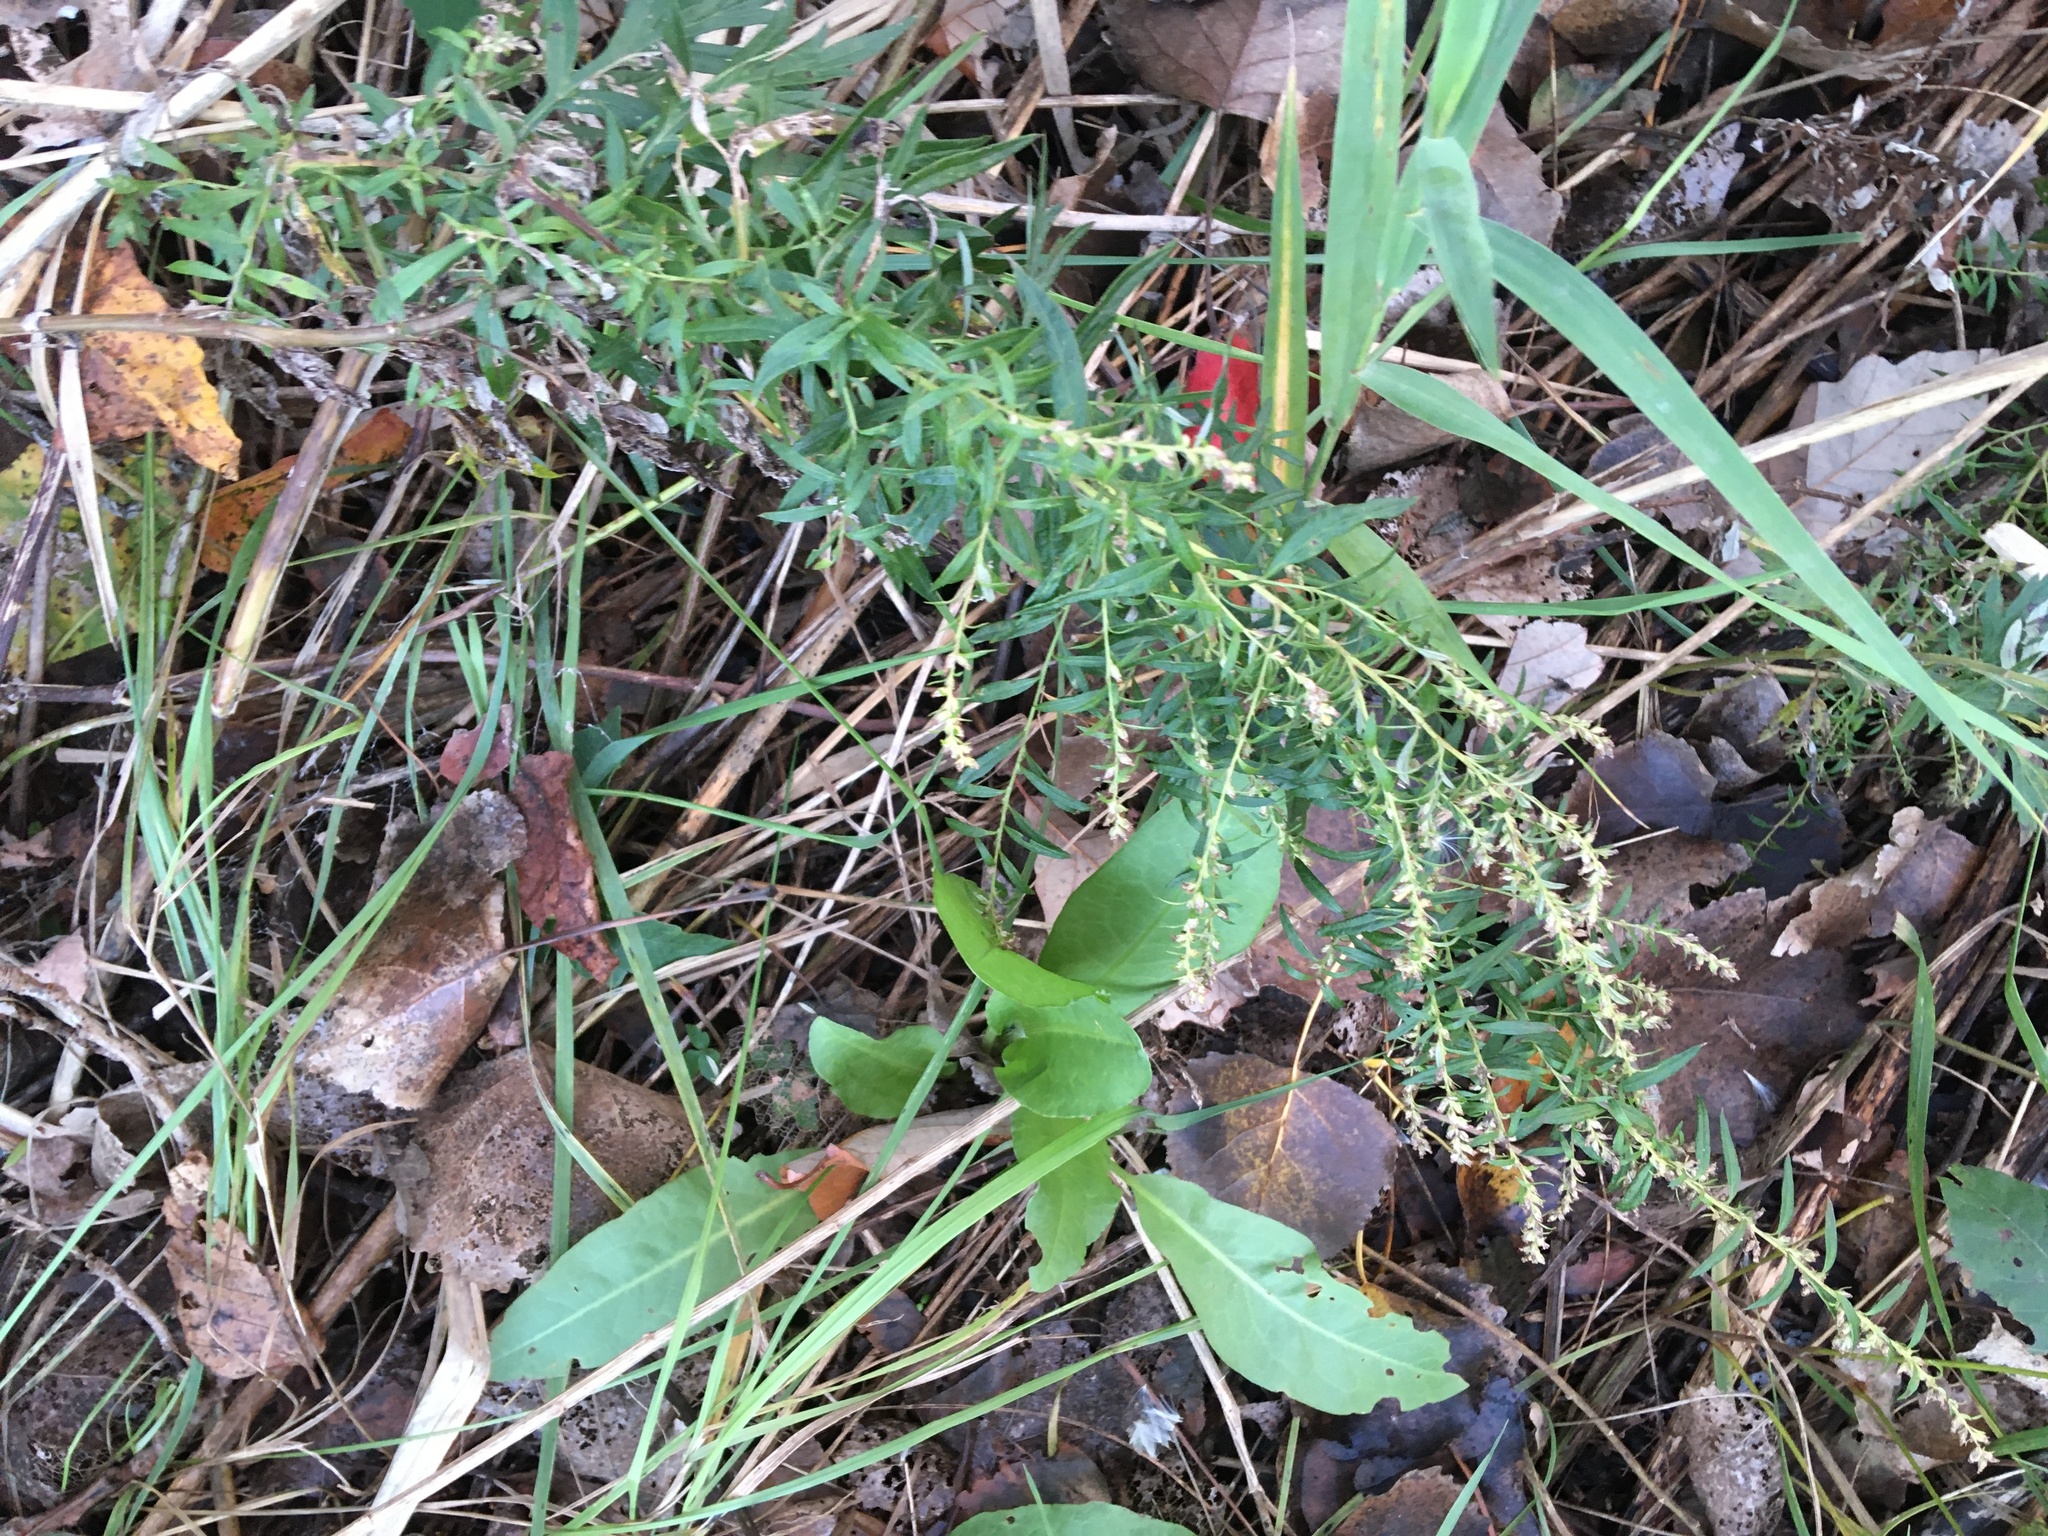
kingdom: Plantae
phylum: Tracheophyta
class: Magnoliopsida
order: Asterales
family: Asteraceae
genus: Artemisia
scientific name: Artemisia vulgaris
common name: Mugwort
